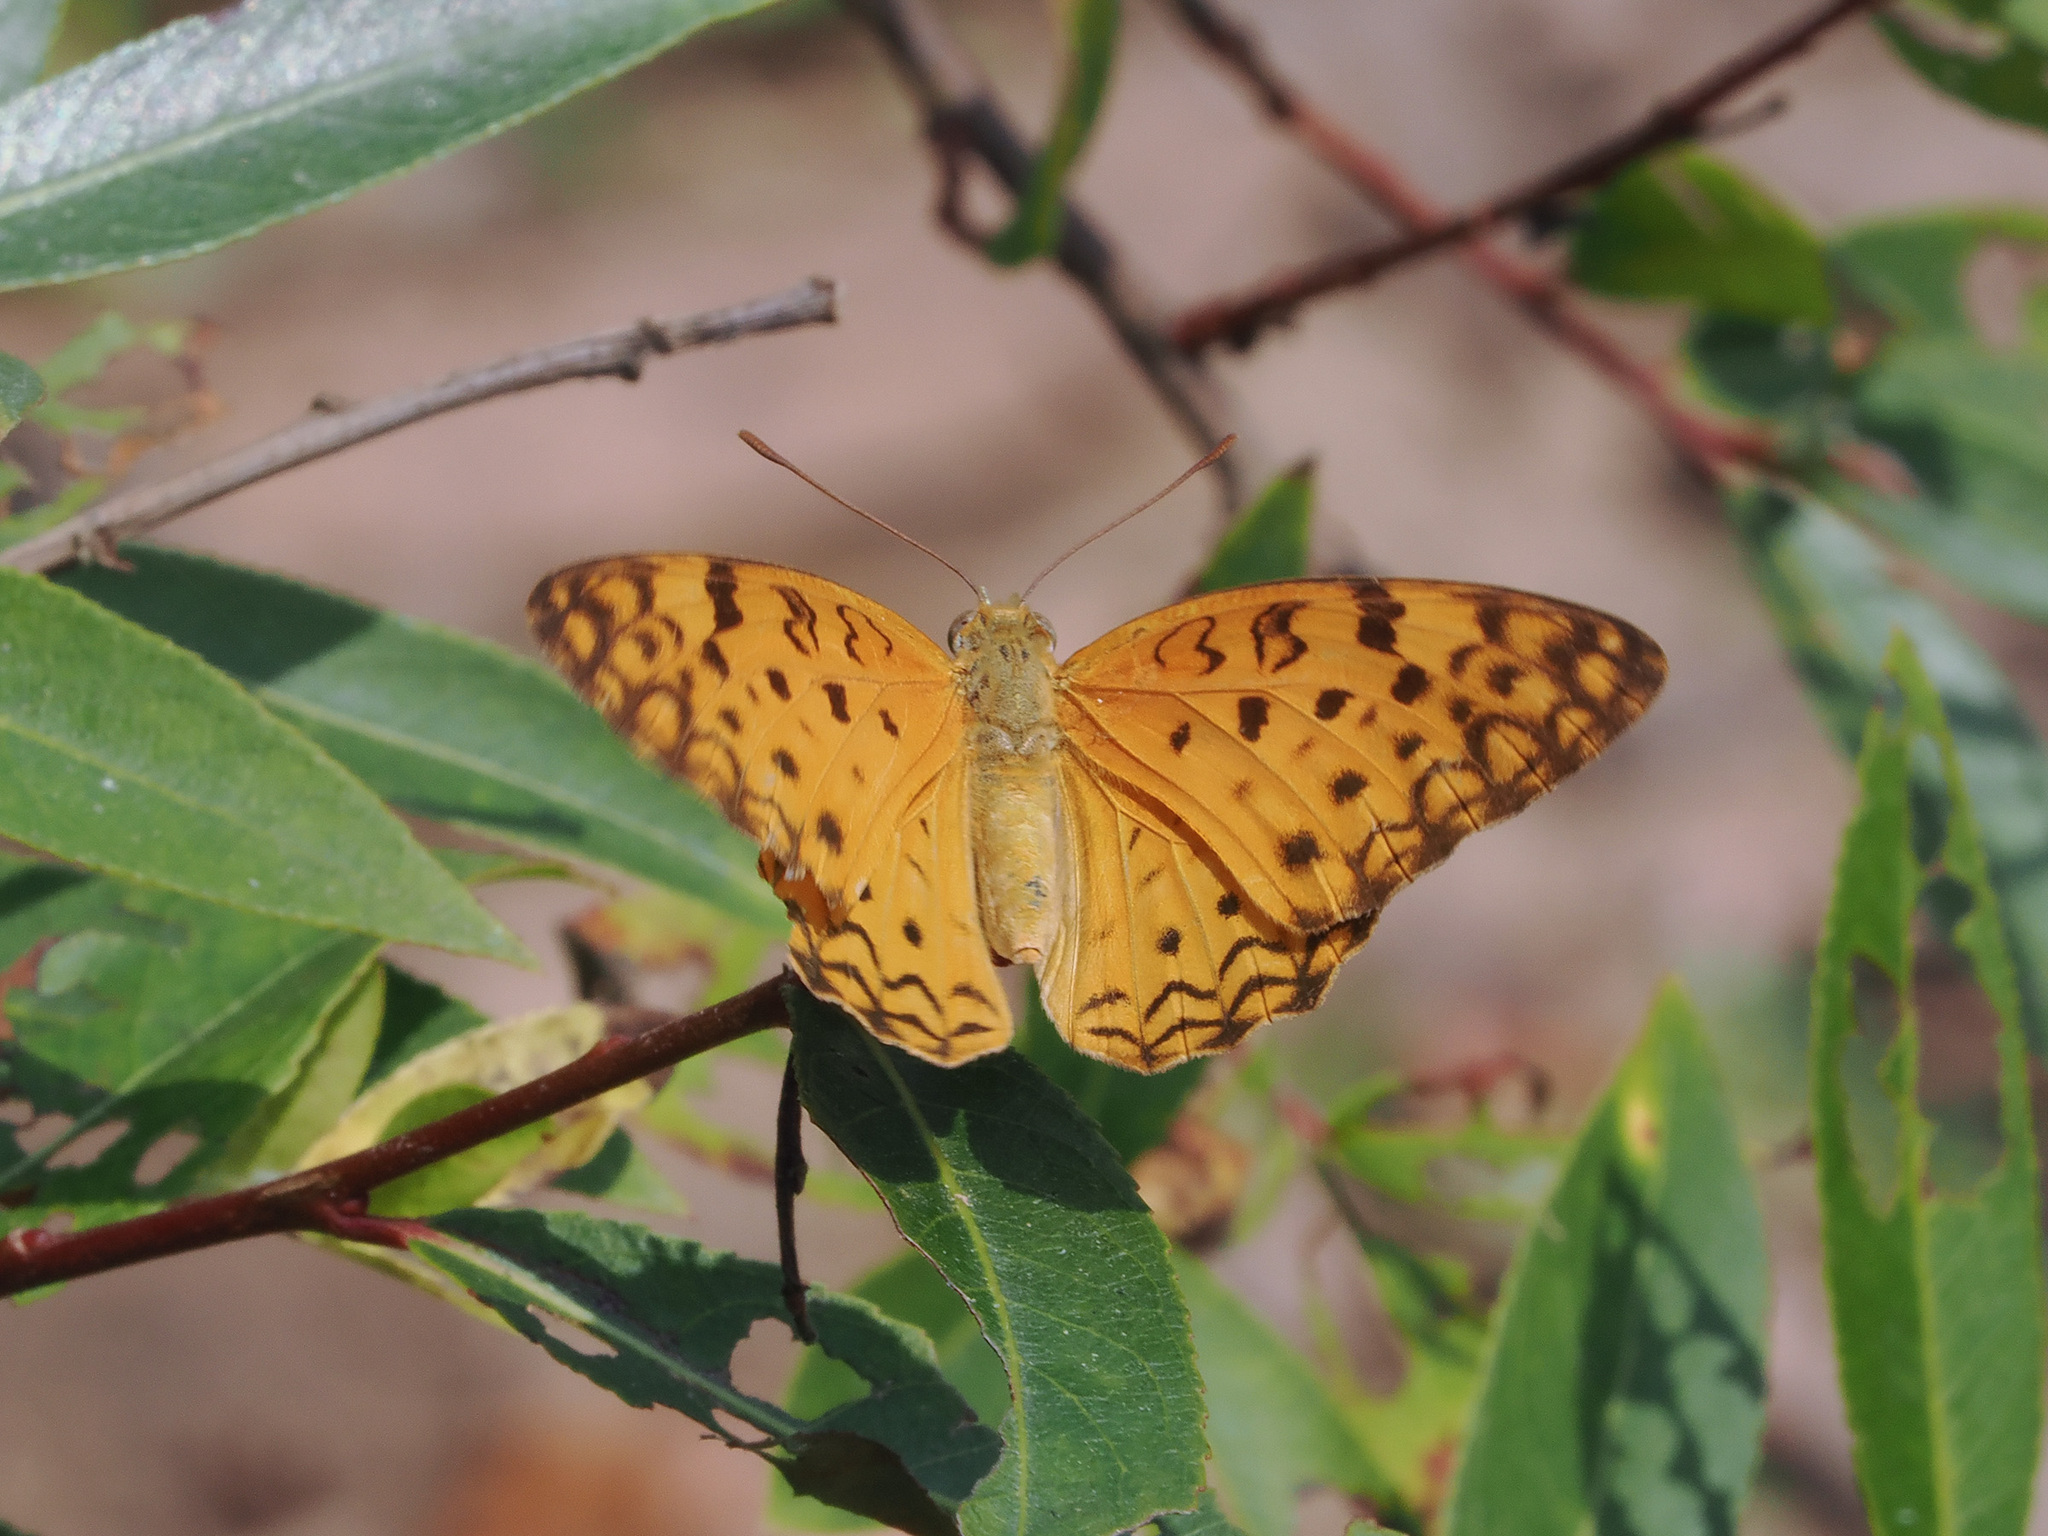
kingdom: Animalia
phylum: Arthropoda
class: Insecta
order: Lepidoptera
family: Nymphalidae
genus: Phalanta
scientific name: Phalanta phalantha
